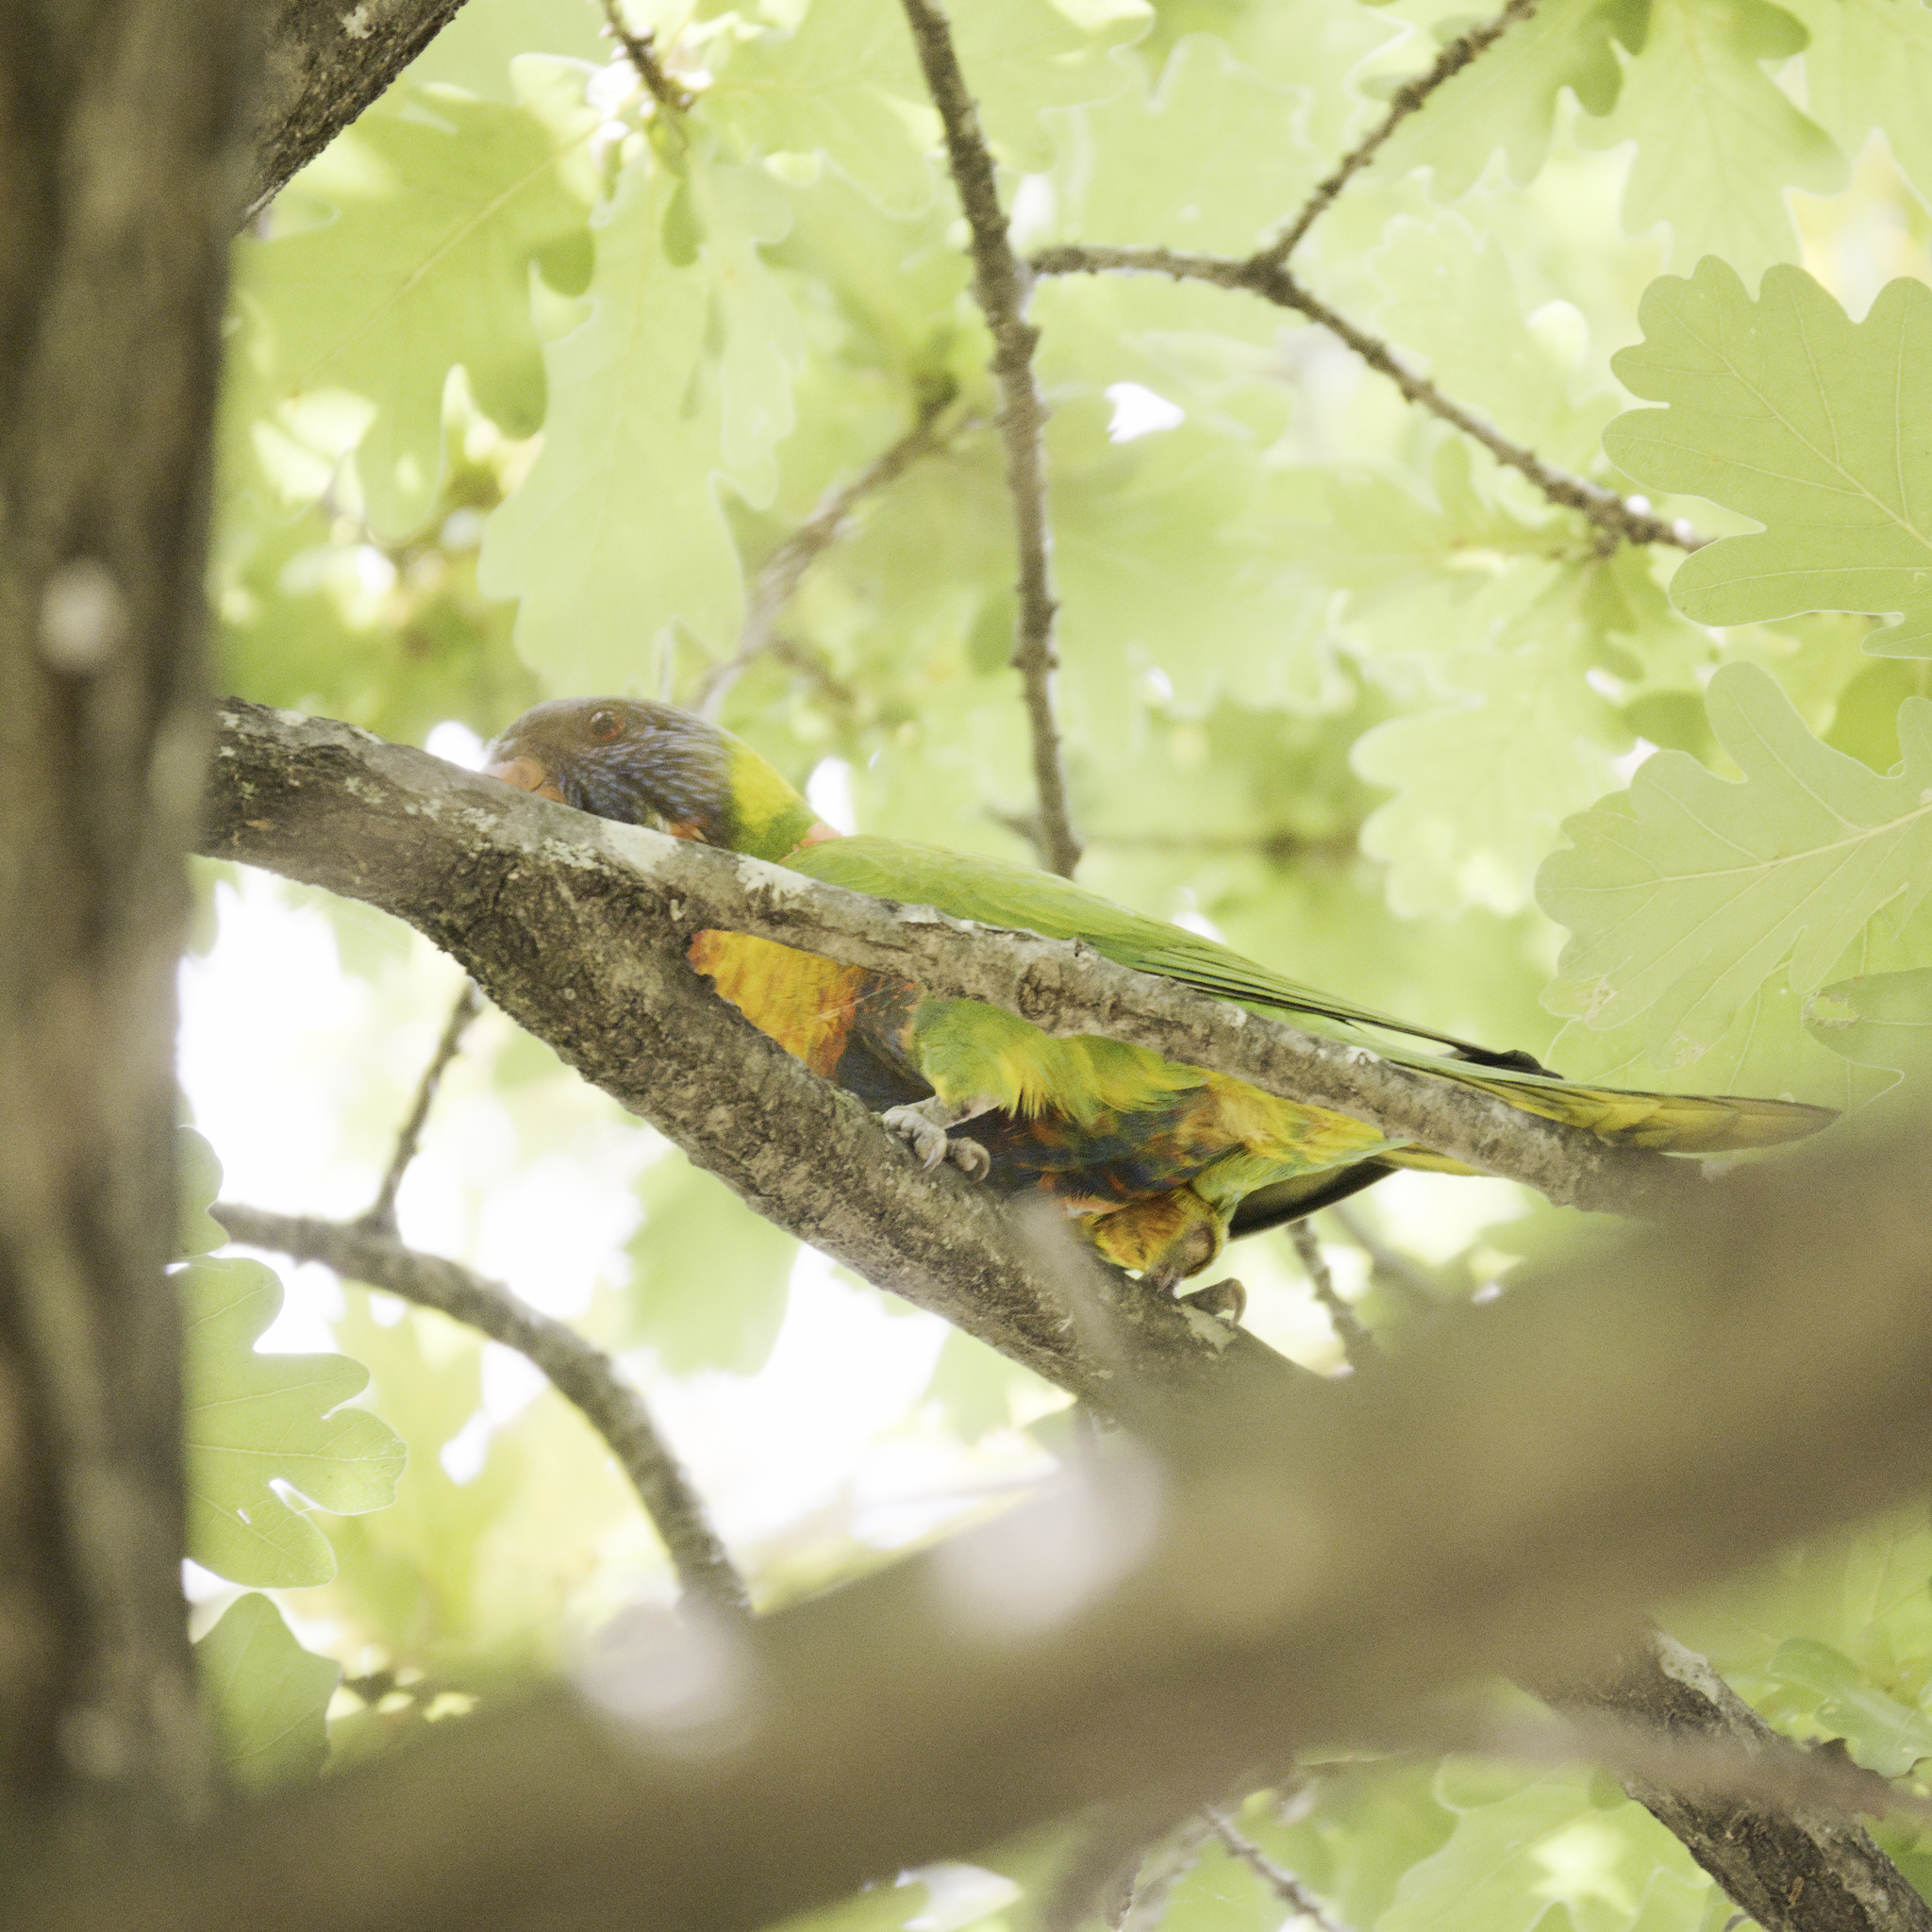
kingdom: Animalia
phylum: Chordata
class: Aves
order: Psittaciformes
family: Psittacidae
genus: Trichoglossus
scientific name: Trichoglossus haematodus
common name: Coconut lorikeet
